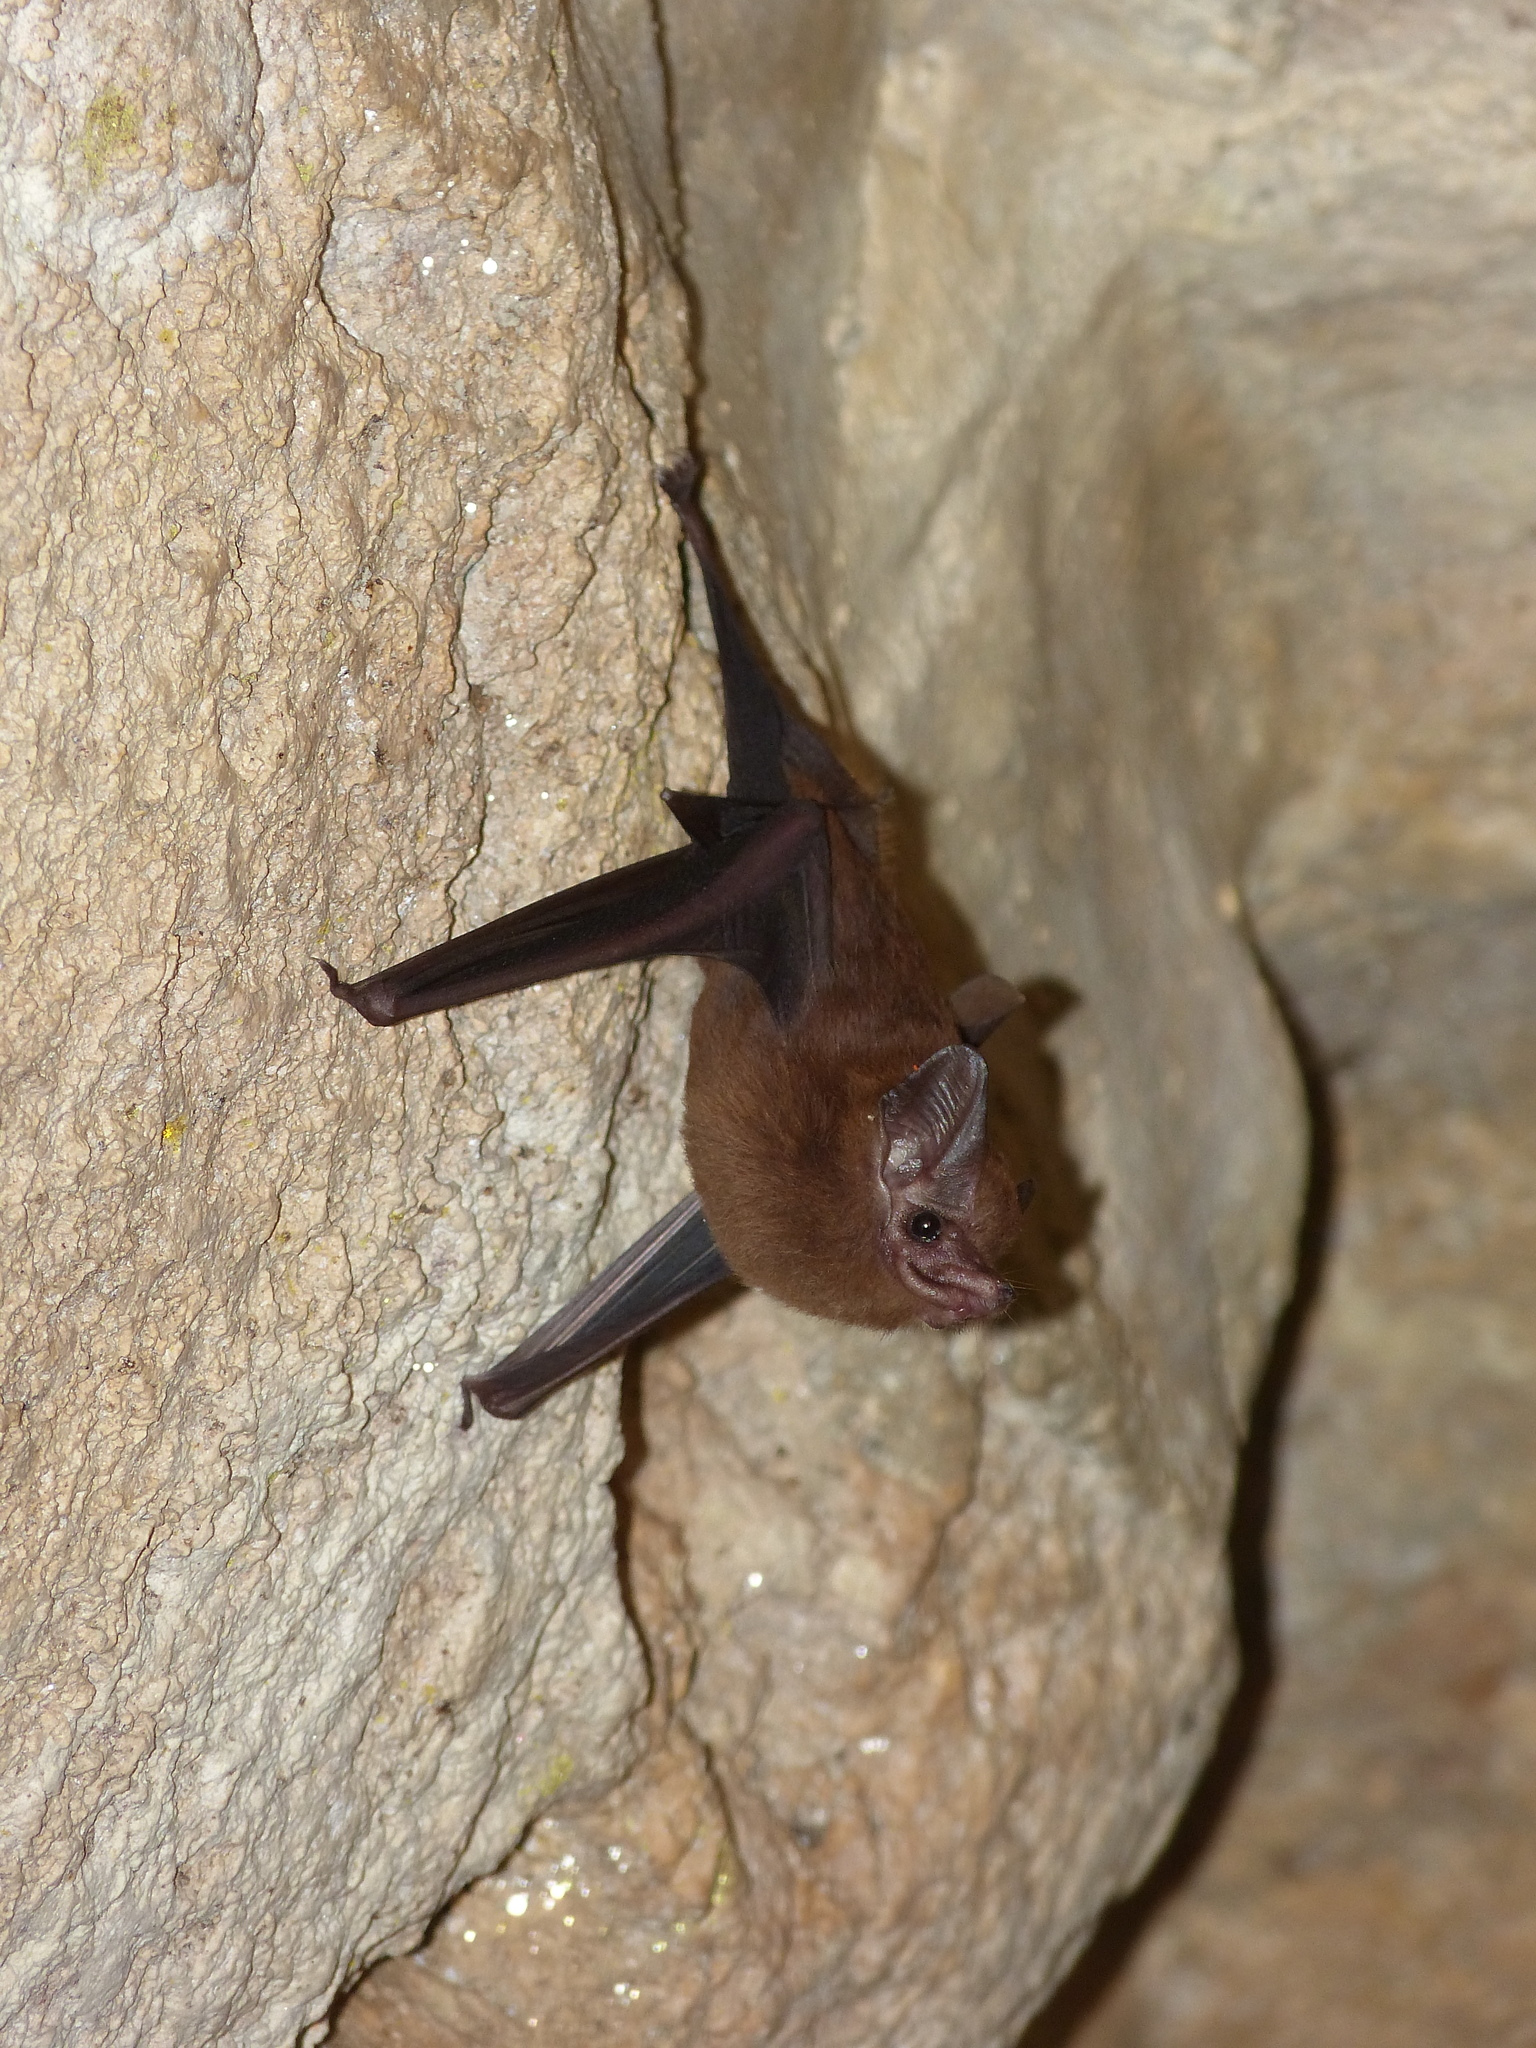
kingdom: Animalia
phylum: Chordata
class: Mammalia
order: Chiroptera
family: Emballonuridae
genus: Peropteryx
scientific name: Peropteryx macrotis
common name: Lesser dog-like bat
